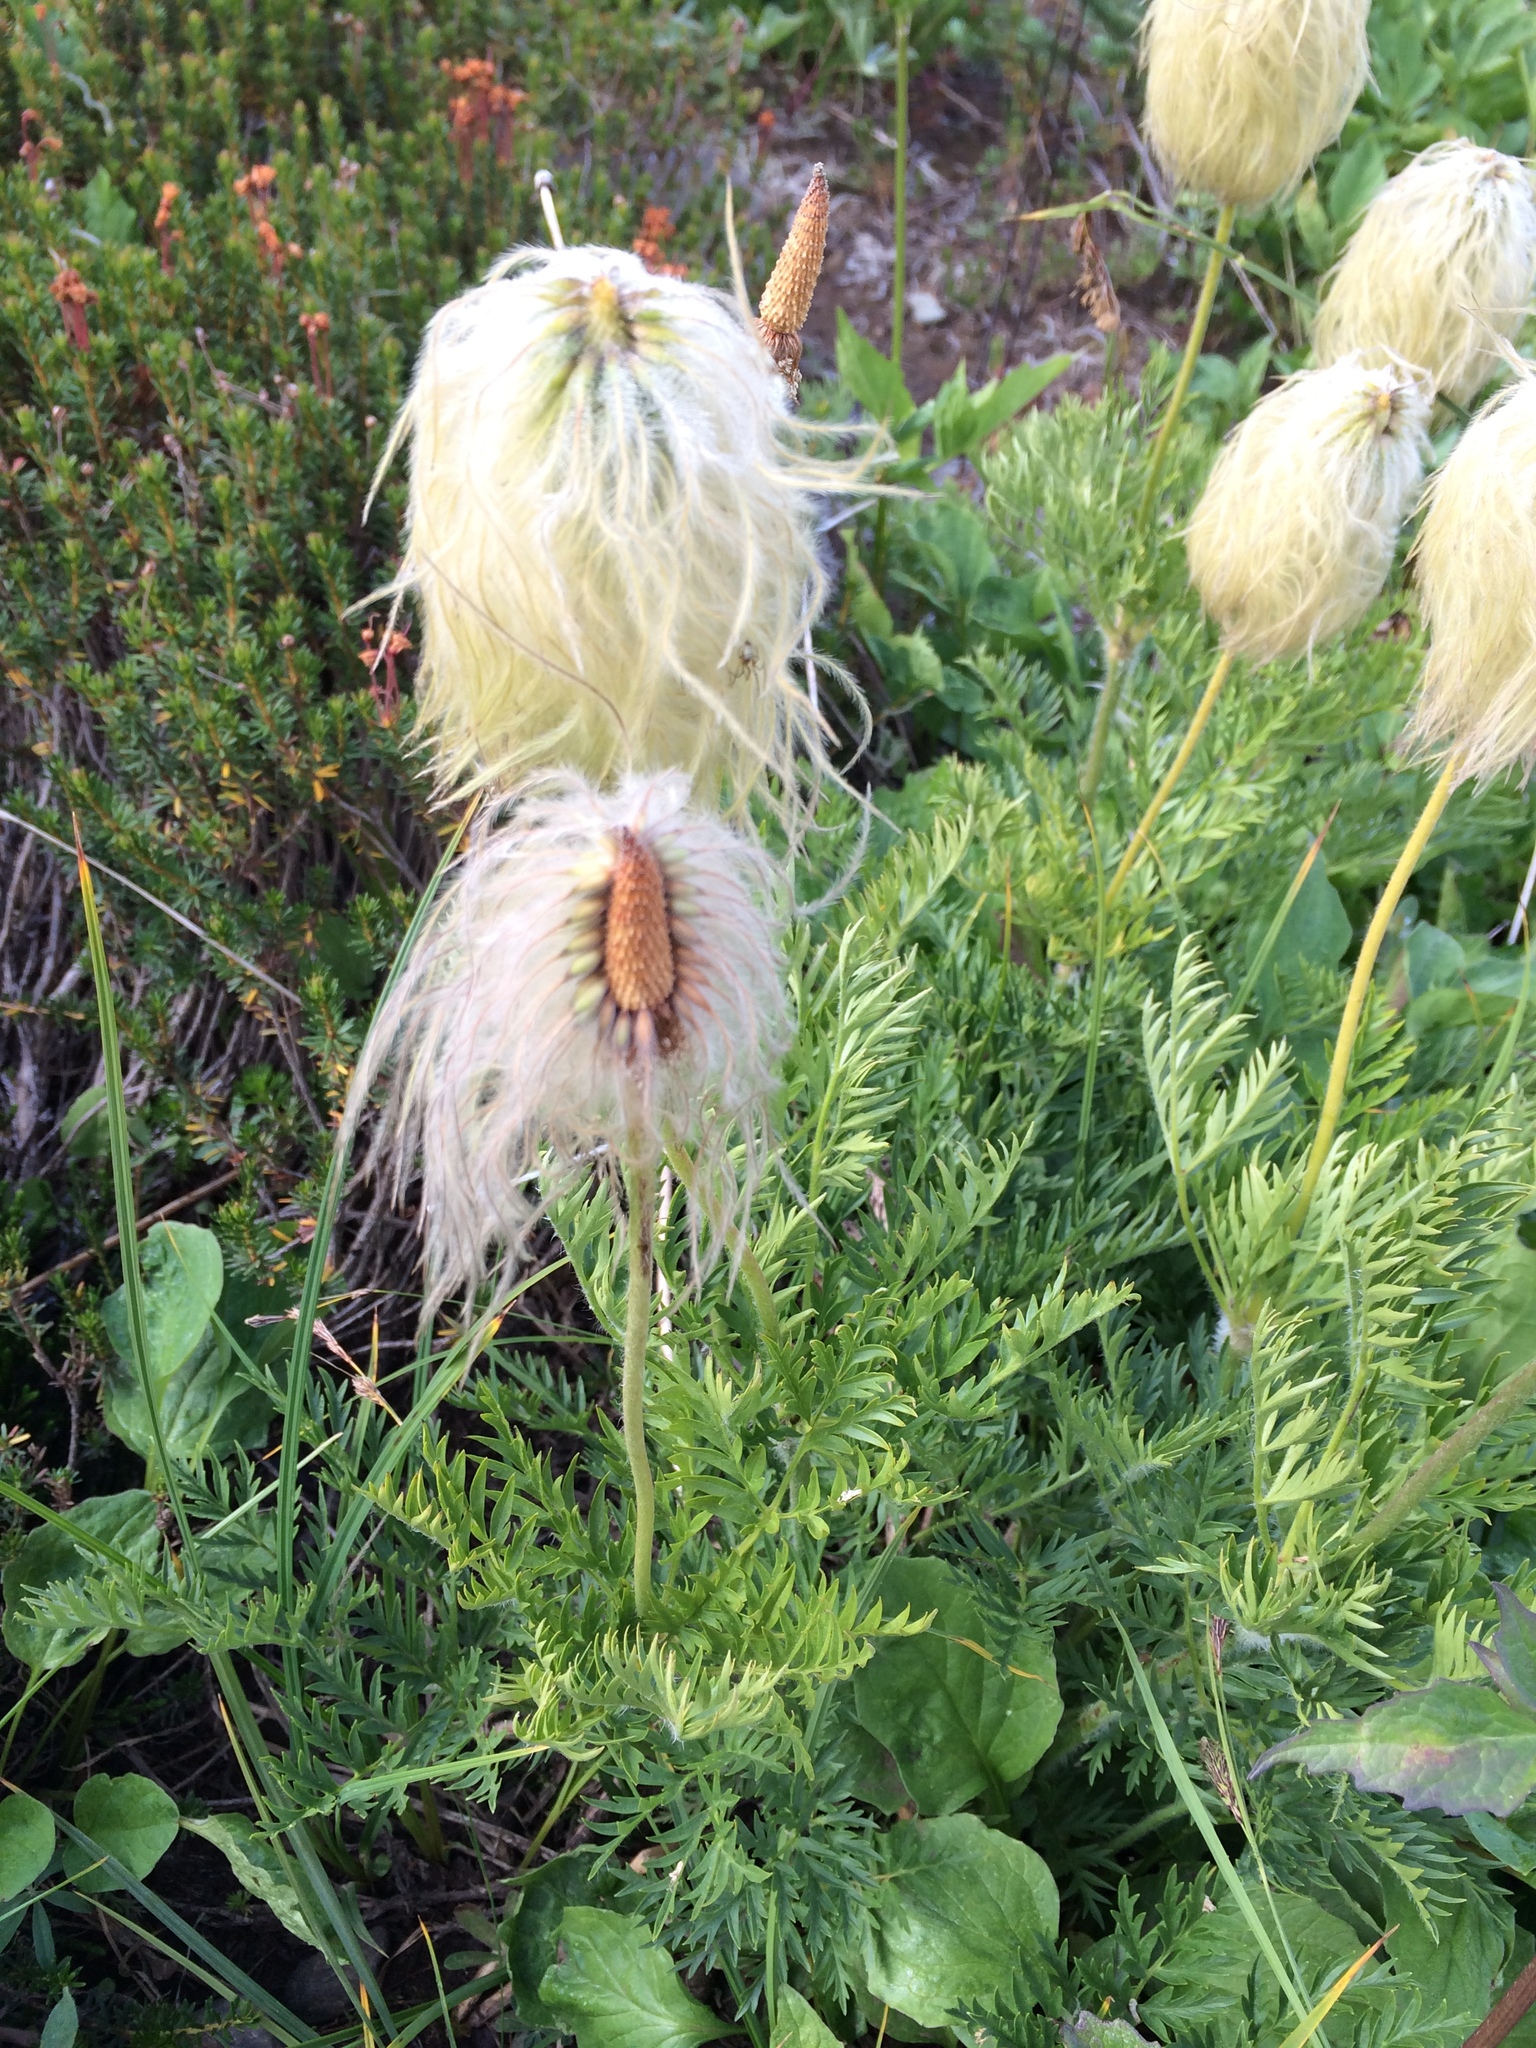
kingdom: Plantae
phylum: Tracheophyta
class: Magnoliopsida
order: Ranunculales
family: Ranunculaceae
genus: Pulsatilla
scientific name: Pulsatilla occidentalis
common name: Mountain pasqueflower
